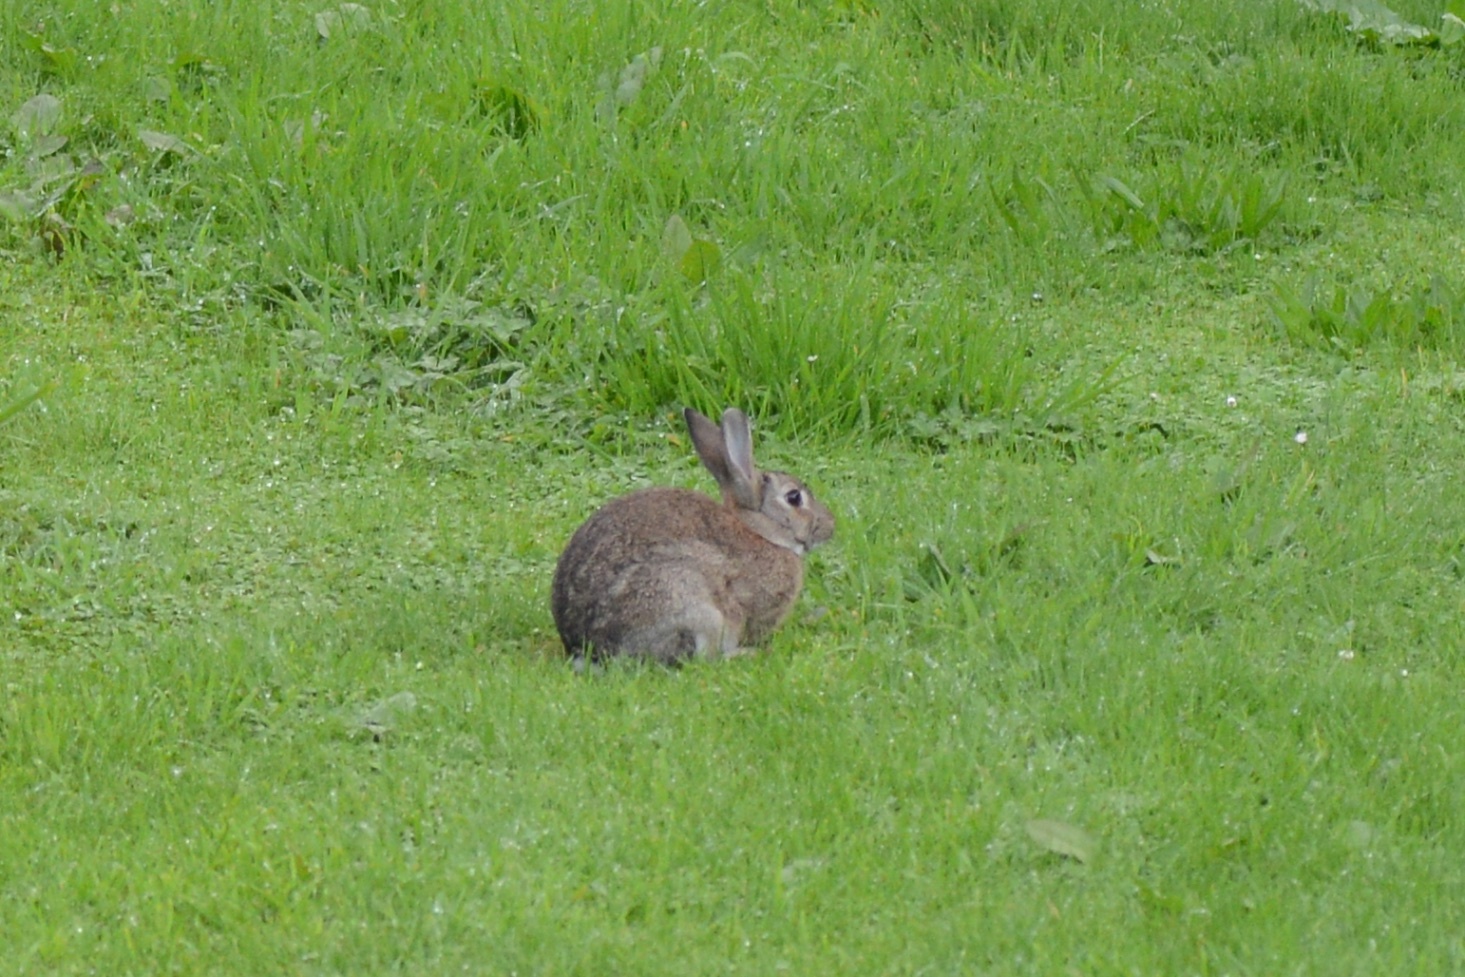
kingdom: Animalia
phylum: Chordata
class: Mammalia
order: Lagomorpha
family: Leporidae
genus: Oryctolagus
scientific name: Oryctolagus cuniculus
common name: European rabbit
